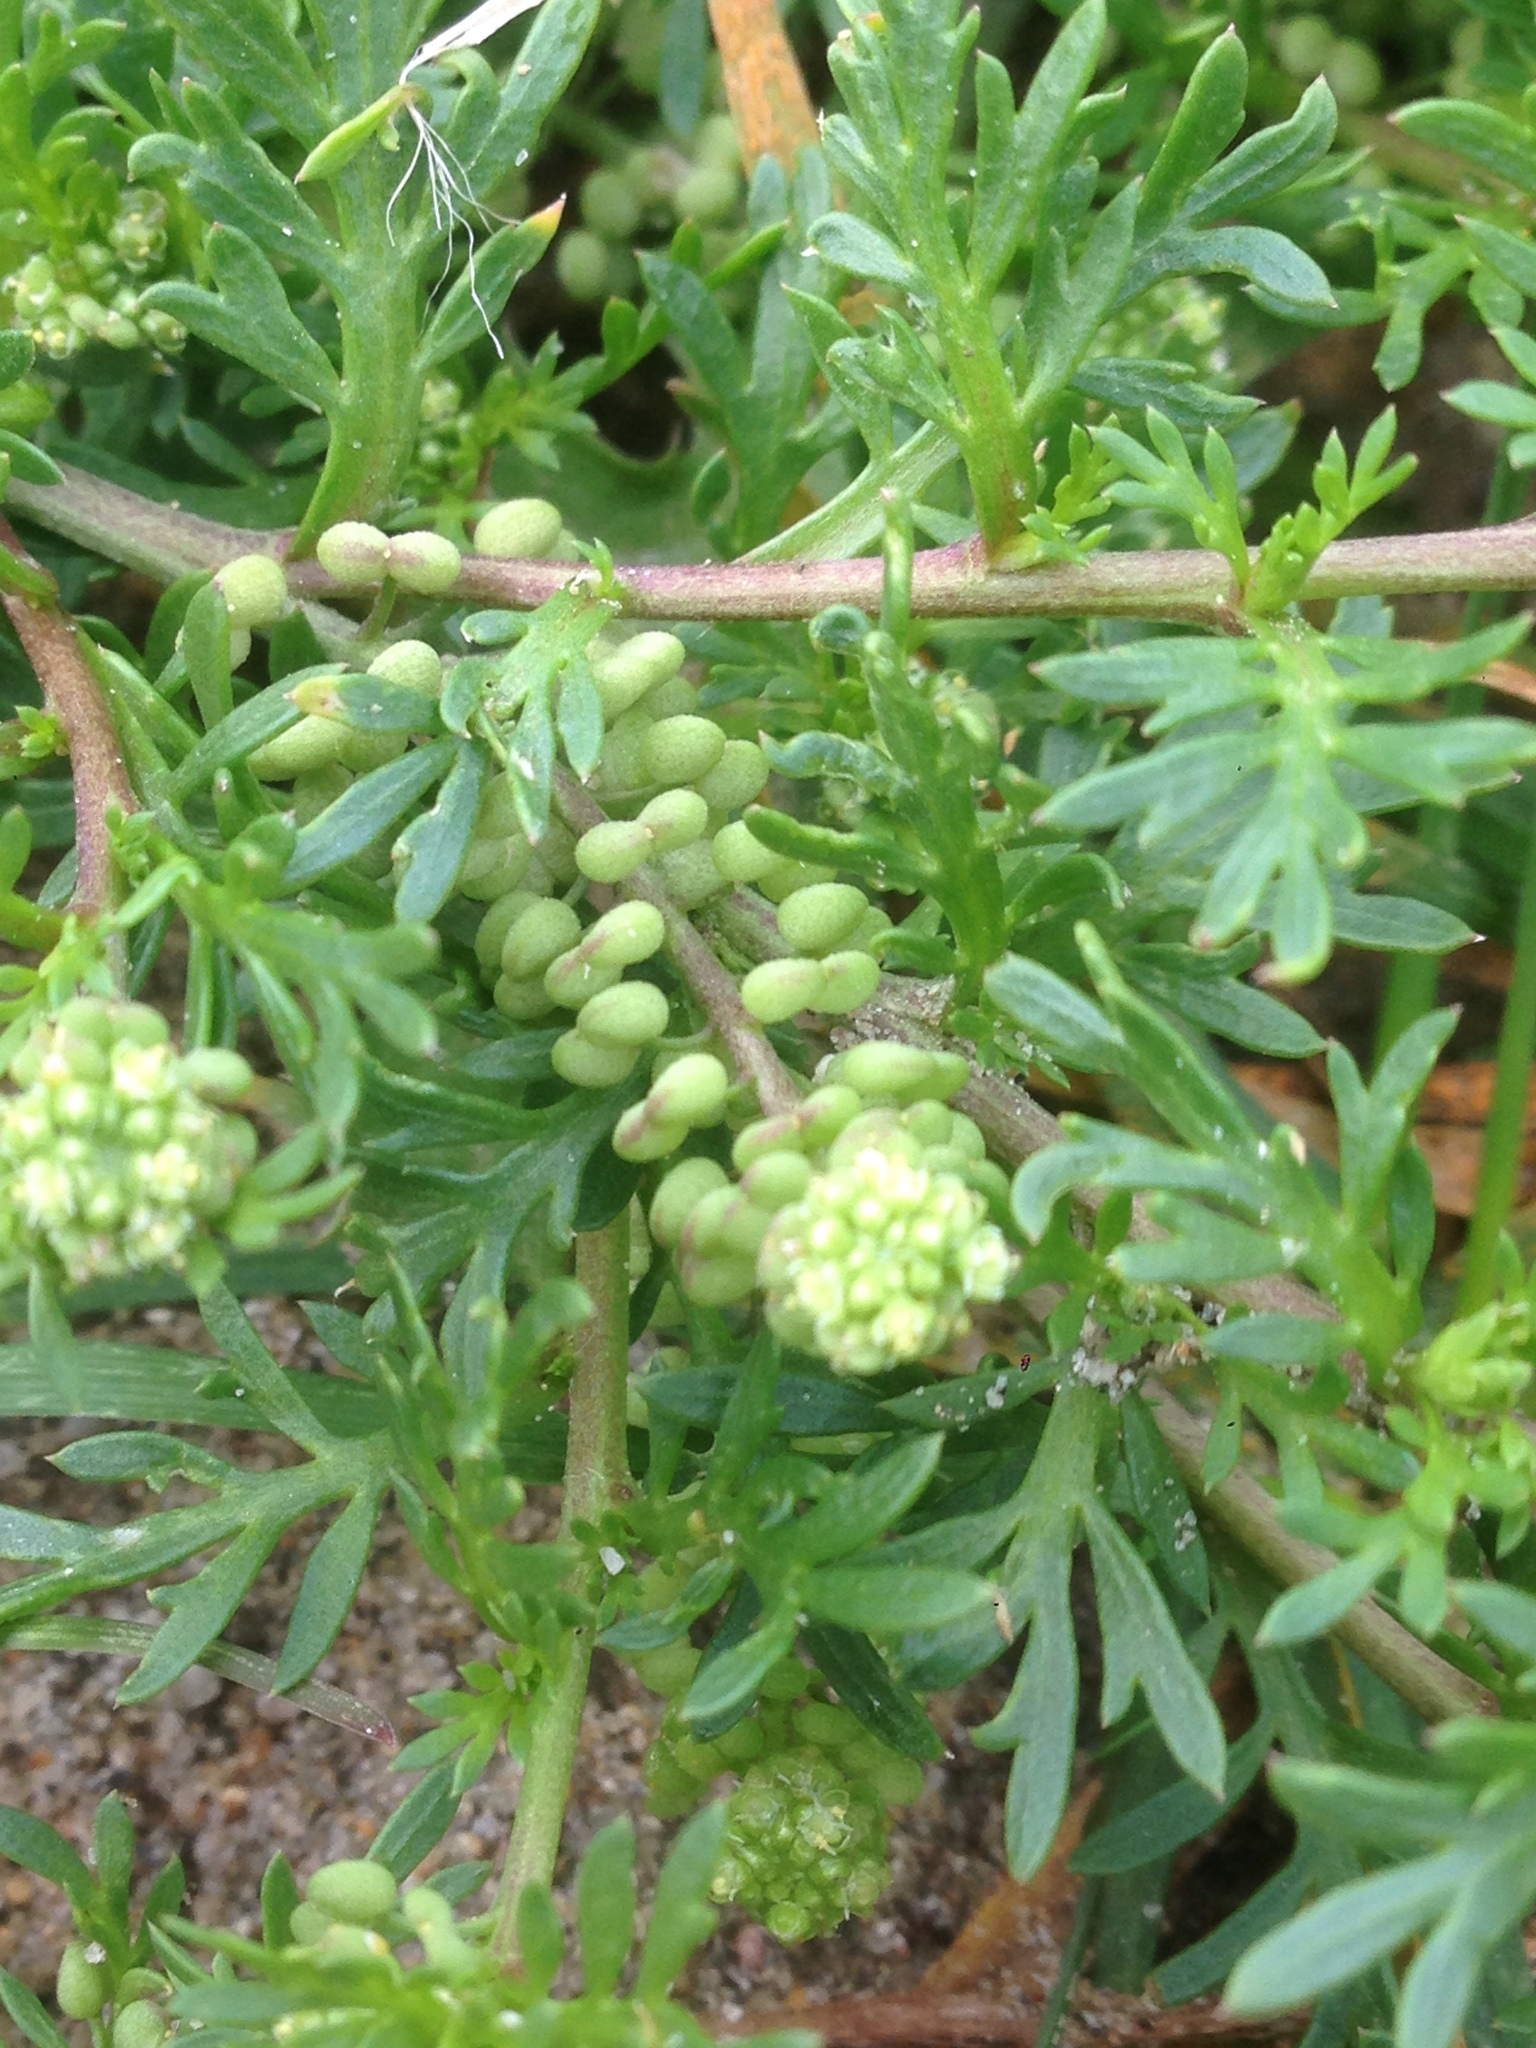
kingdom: Plantae
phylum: Tracheophyta
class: Magnoliopsida
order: Brassicales
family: Brassicaceae
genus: Lepidium
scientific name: Lepidium didymum
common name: Lesser swinecress
